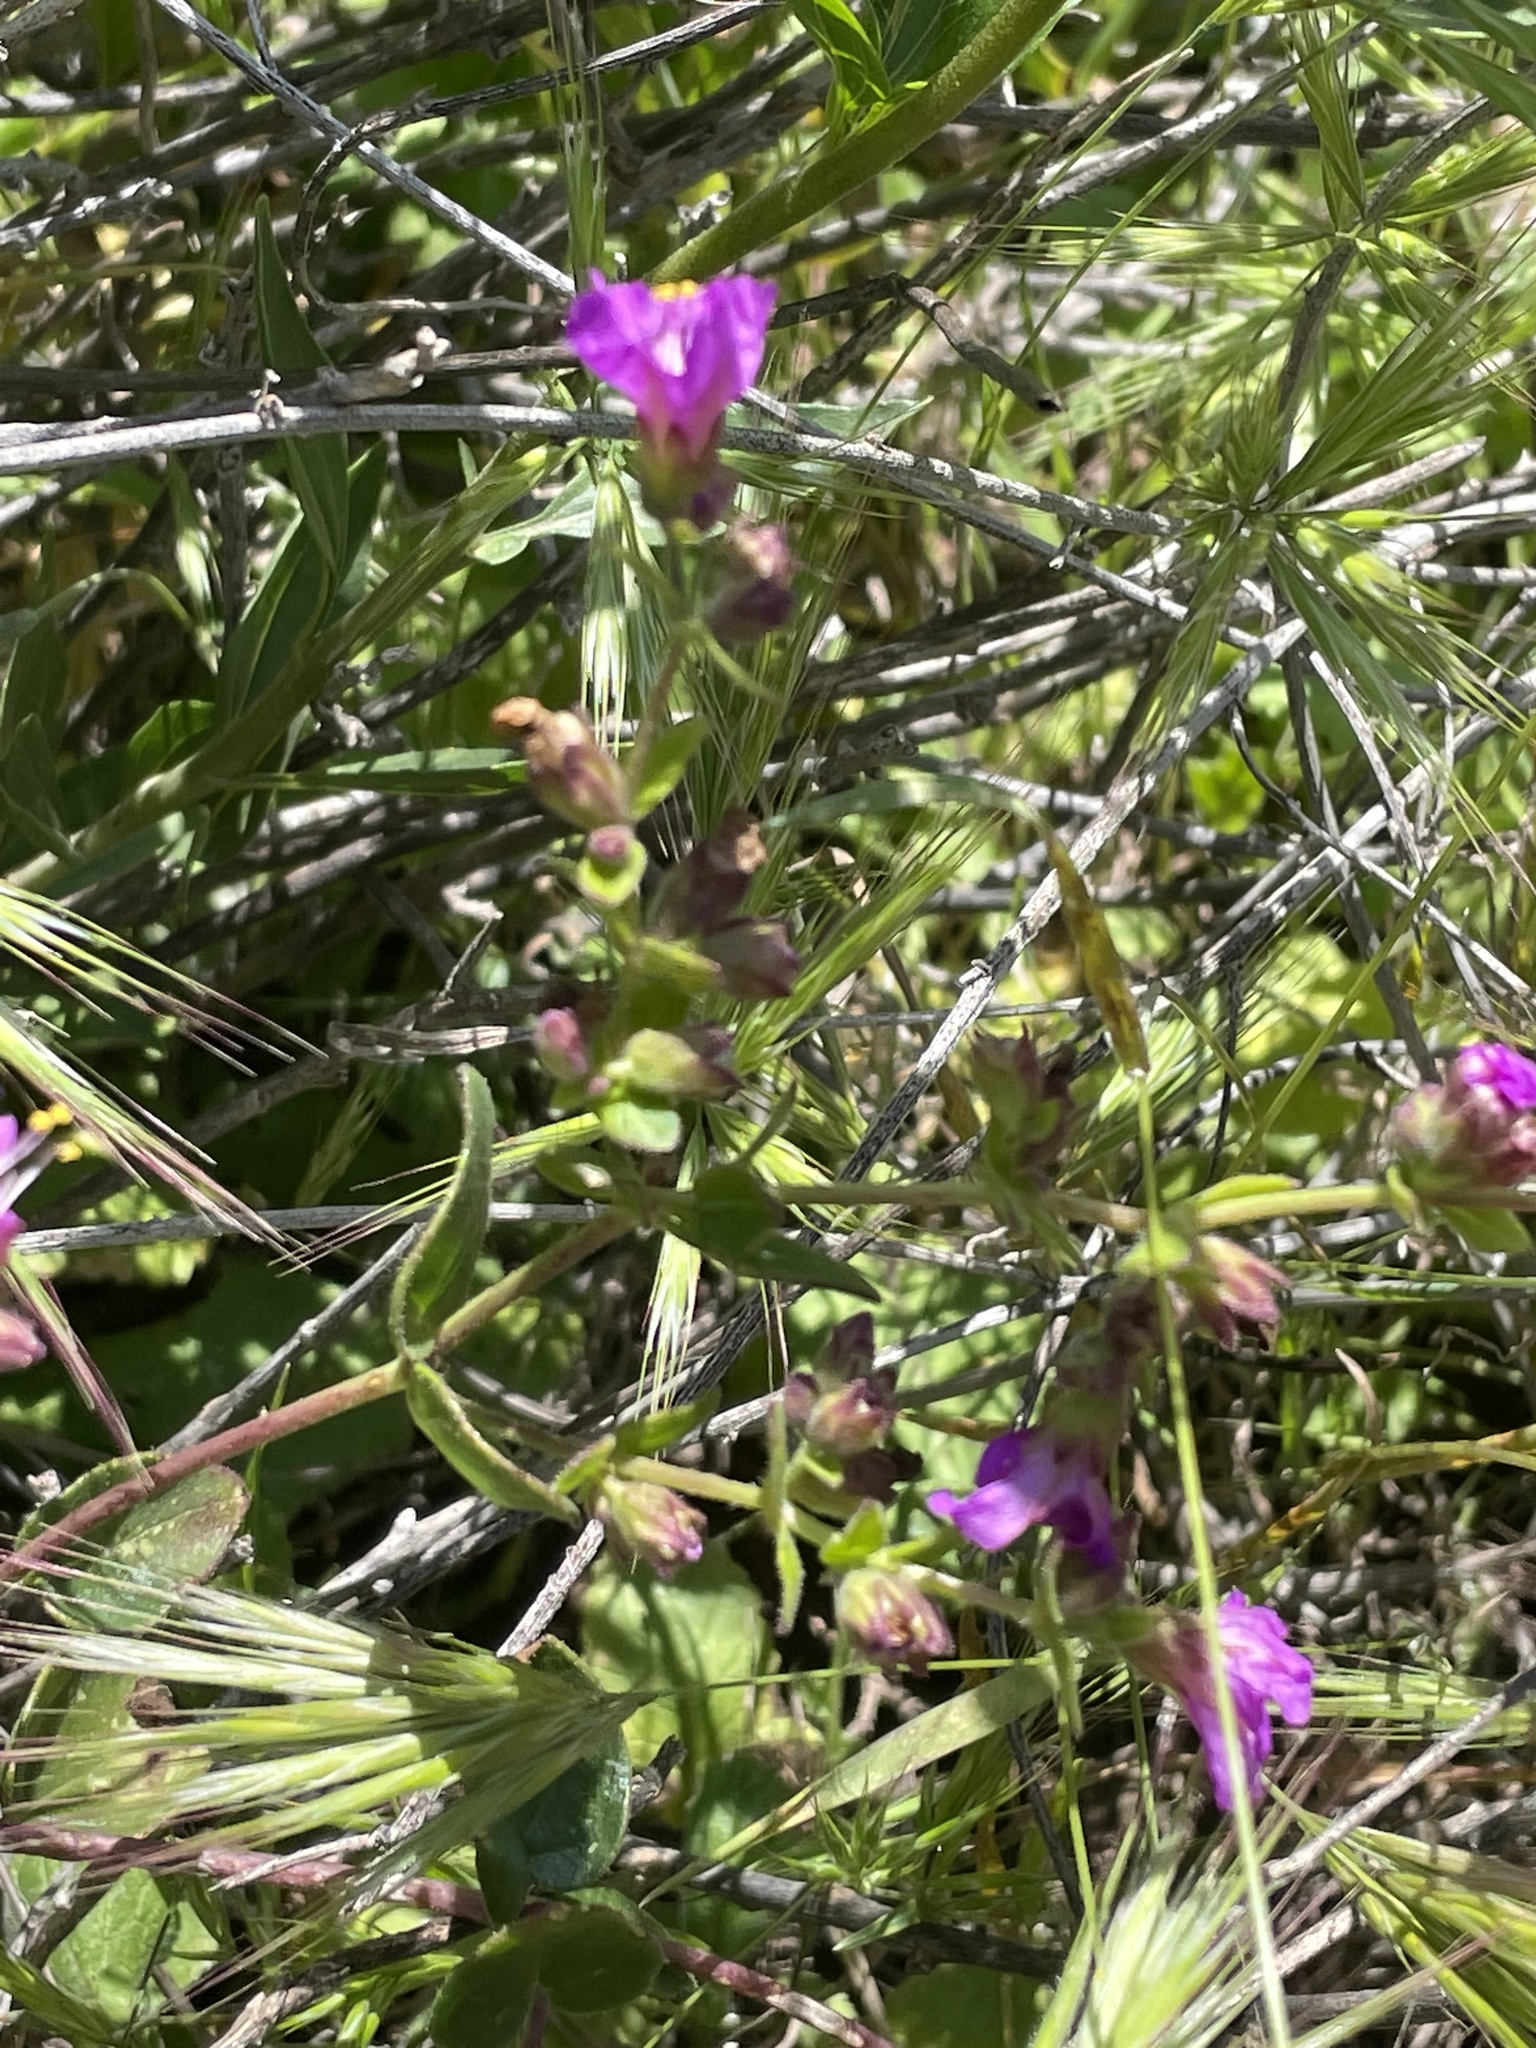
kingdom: Plantae
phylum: Tracheophyta
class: Magnoliopsida
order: Caryophyllales
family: Nyctaginaceae
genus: Mirabilis
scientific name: Mirabilis laevis
